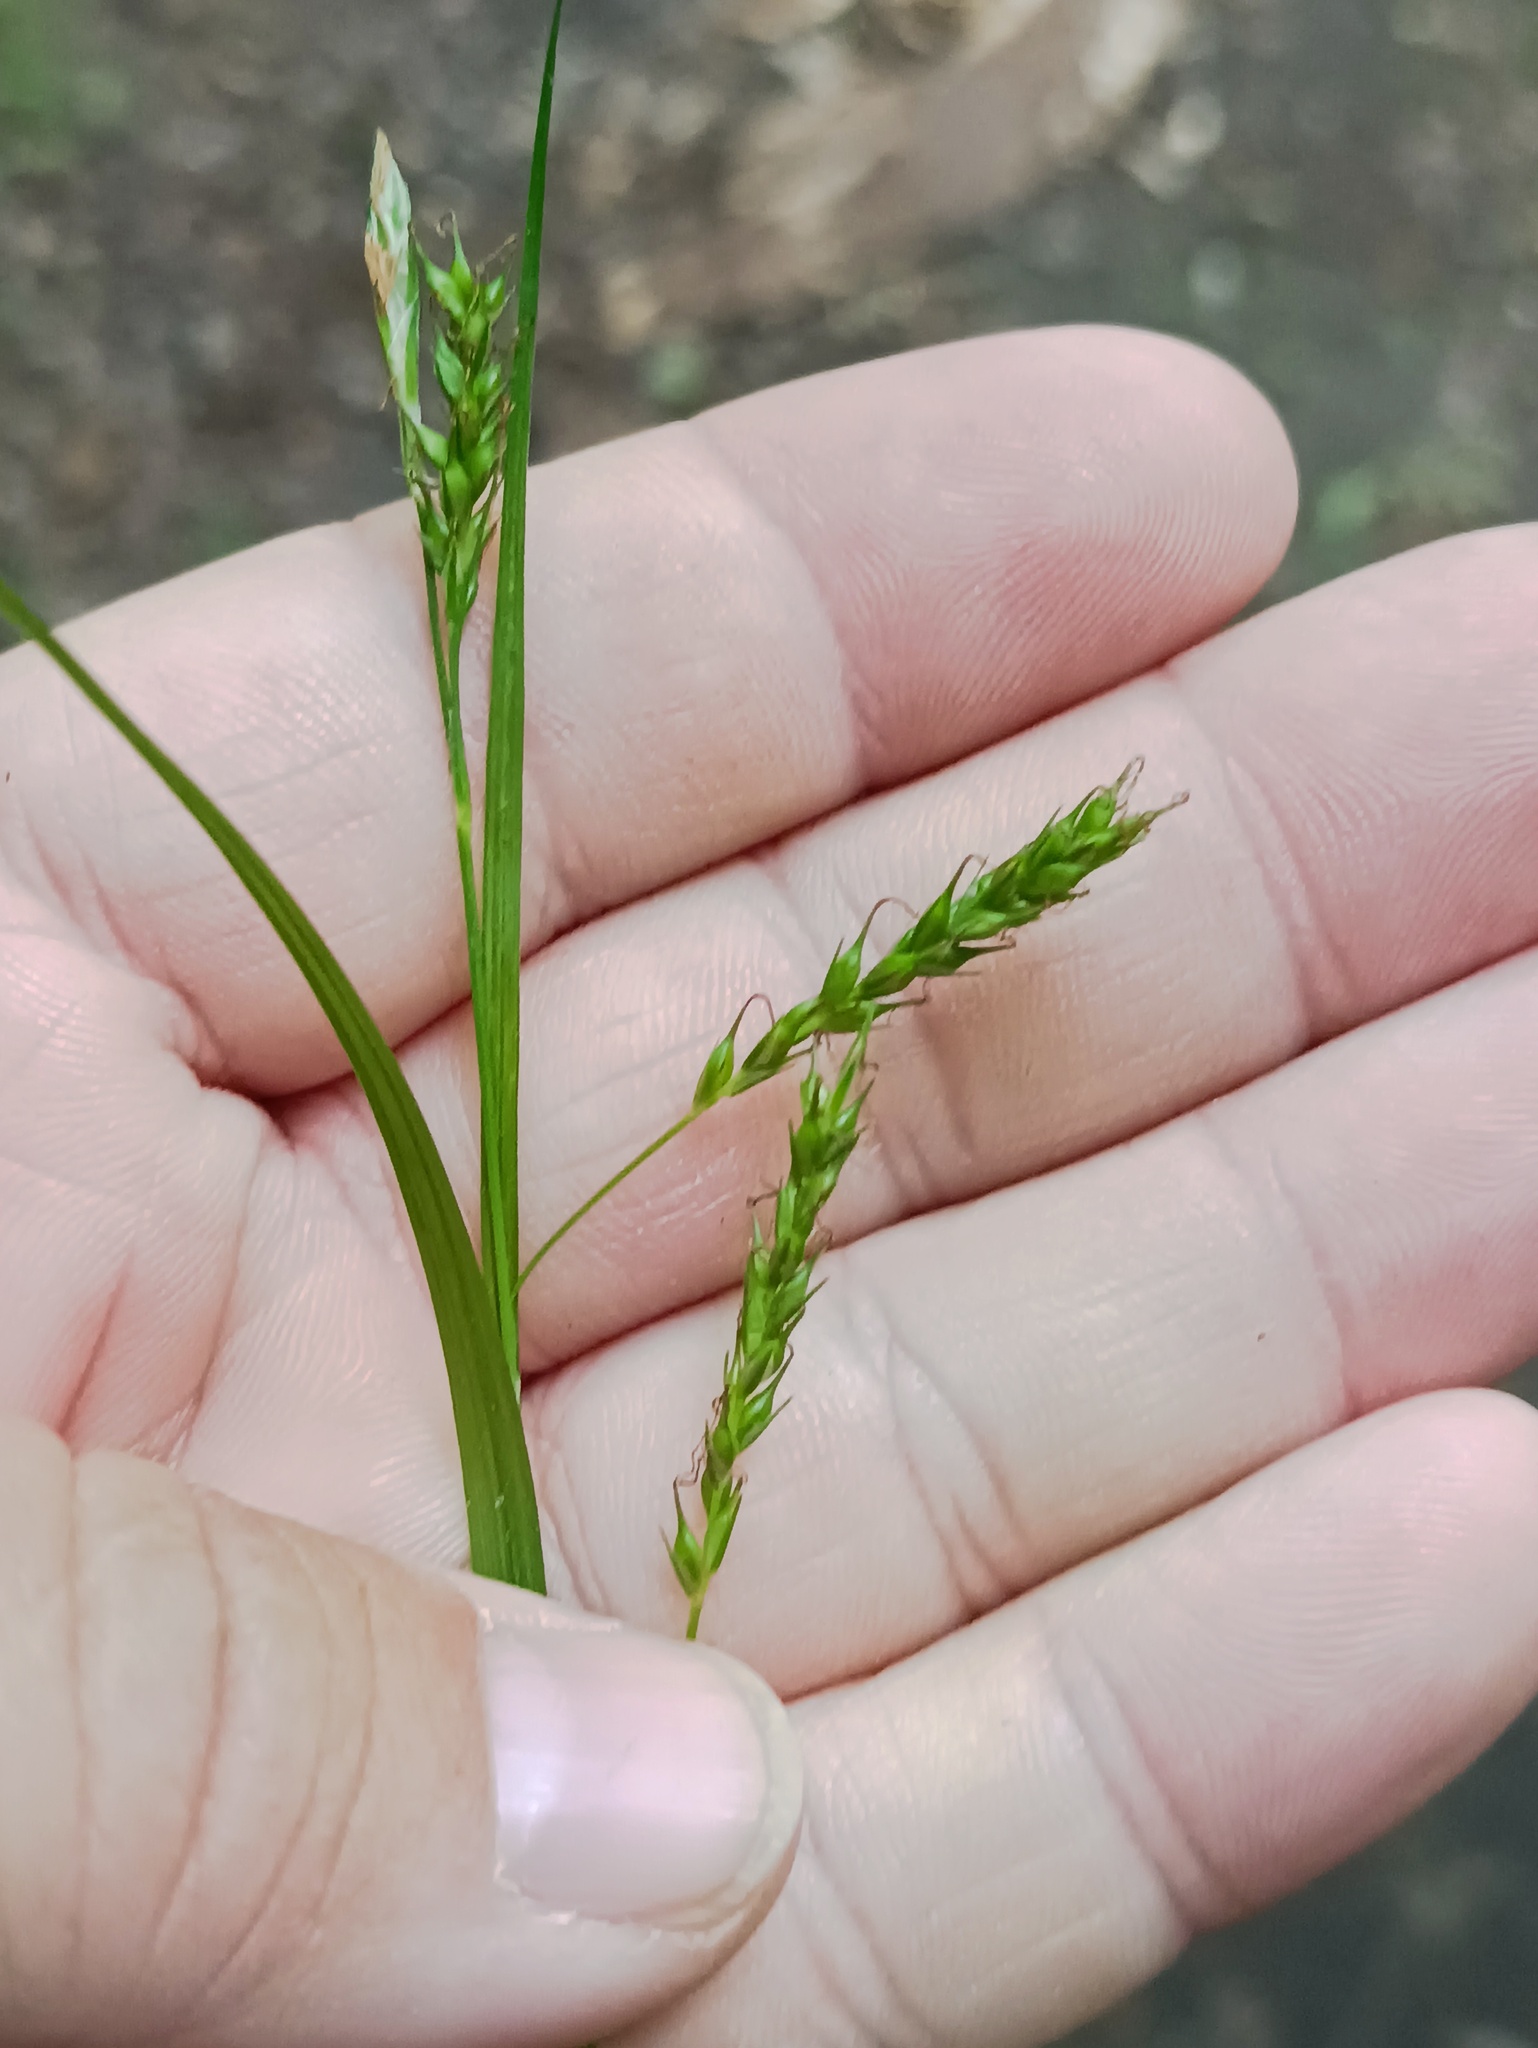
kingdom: Plantae
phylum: Tracheophyta
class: Liliopsida
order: Poales
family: Cyperaceae
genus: Carex
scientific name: Carex sylvatica
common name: Wood-sedge
